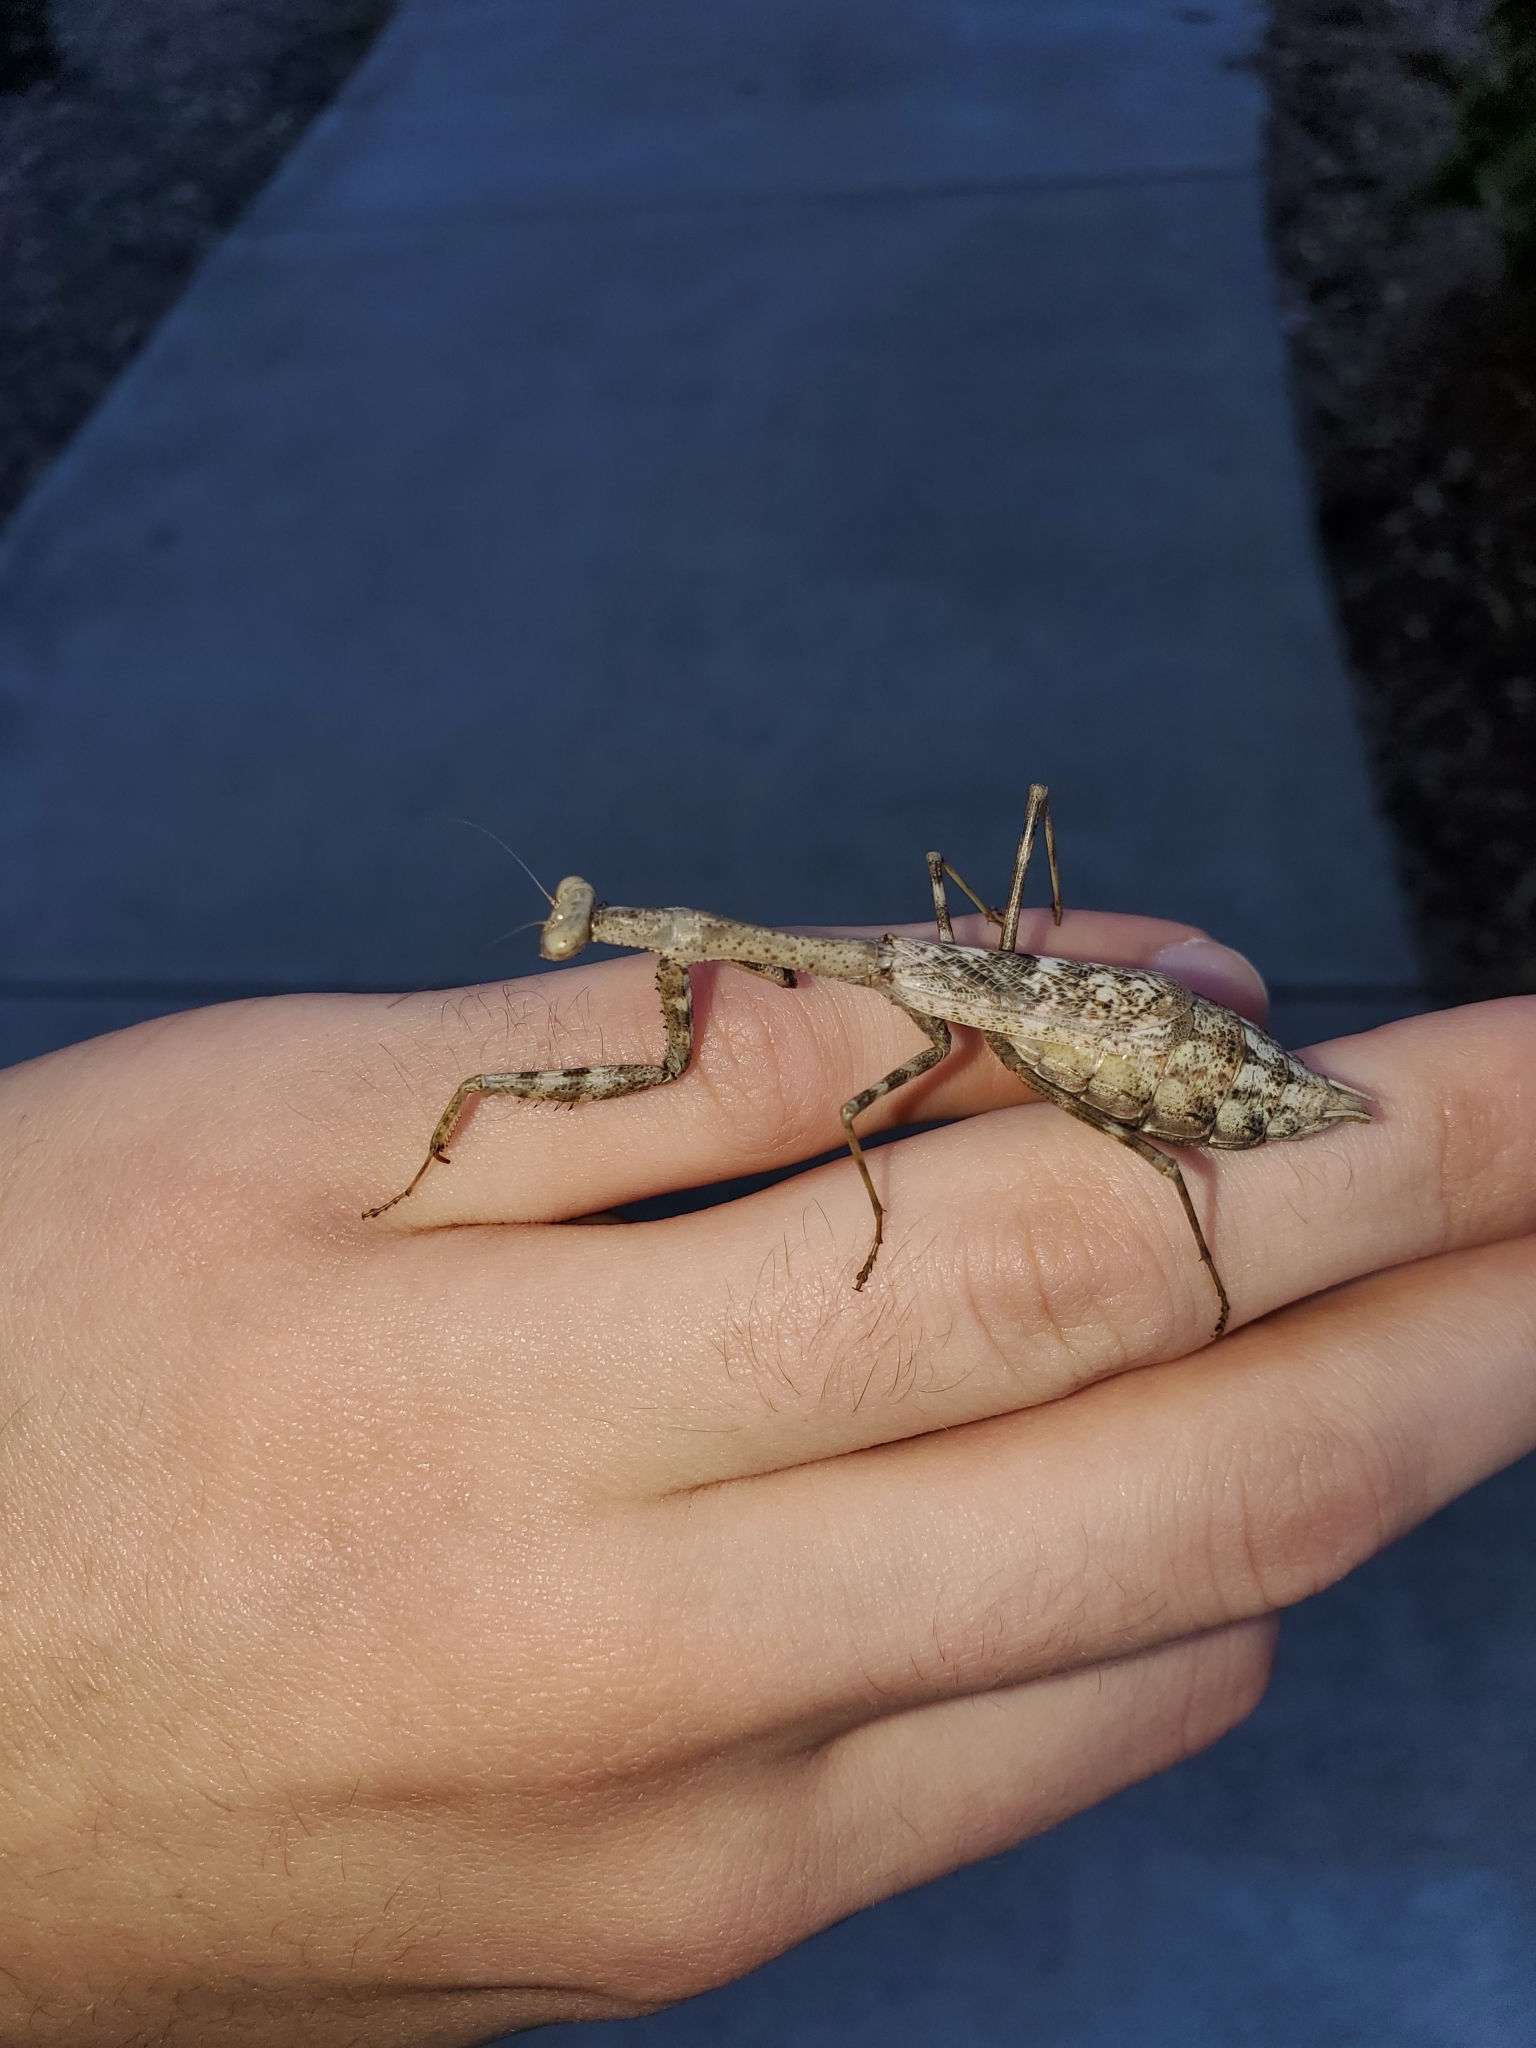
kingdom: Animalia
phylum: Arthropoda
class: Insecta
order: Mantodea
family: Mantidae
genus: Stagmomantis
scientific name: Stagmomantis carolina
